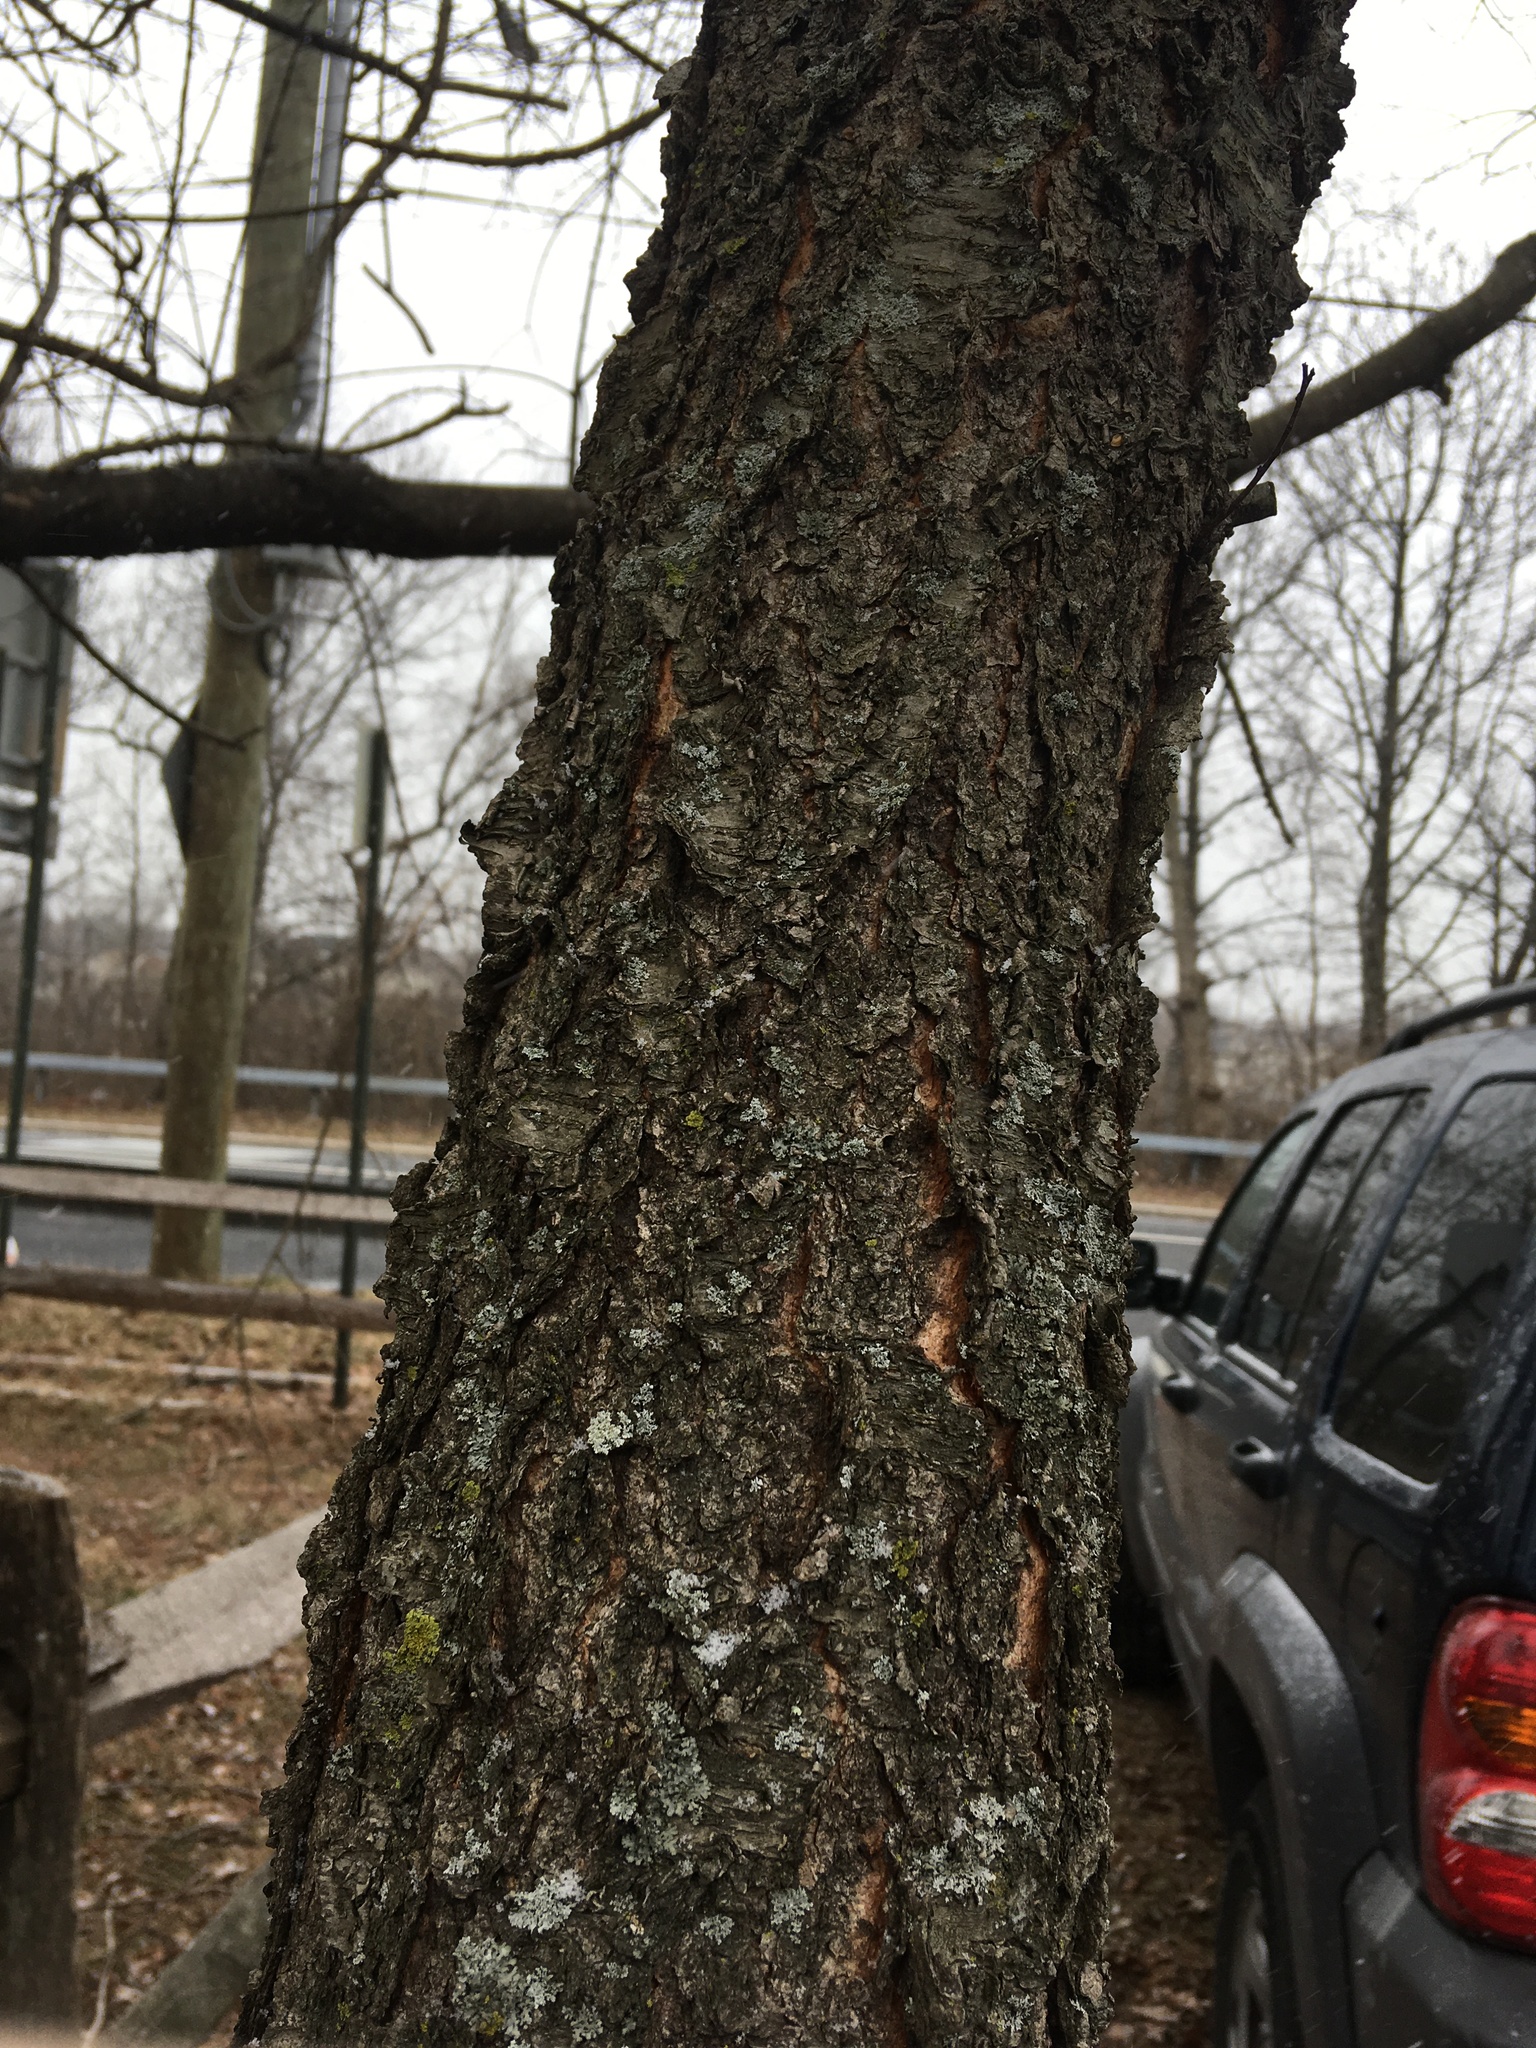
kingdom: Plantae
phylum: Tracheophyta
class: Magnoliopsida
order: Rosales
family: Rosaceae
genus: Prunus
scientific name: Prunus serotina
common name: Black cherry
